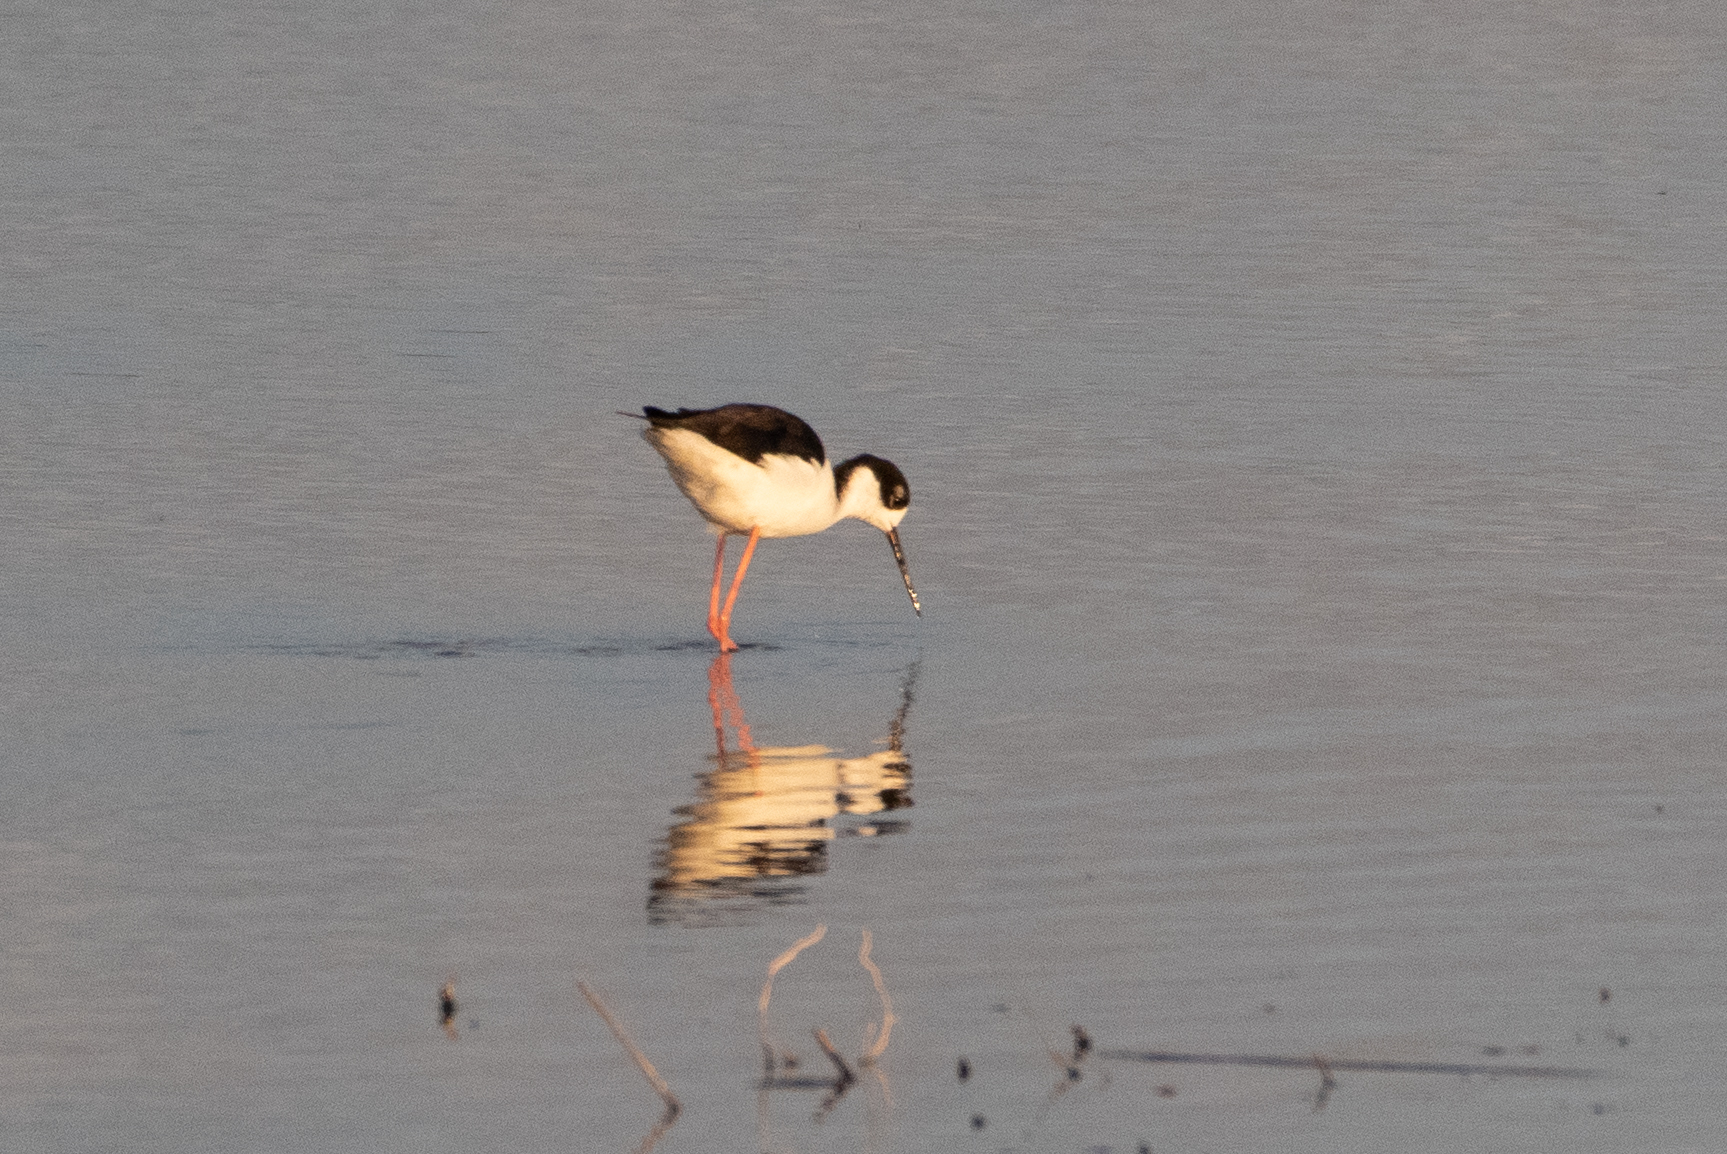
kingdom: Animalia
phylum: Chordata
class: Aves
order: Charadriiformes
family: Recurvirostridae
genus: Himantopus
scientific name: Himantopus mexicanus
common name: Black-necked stilt
